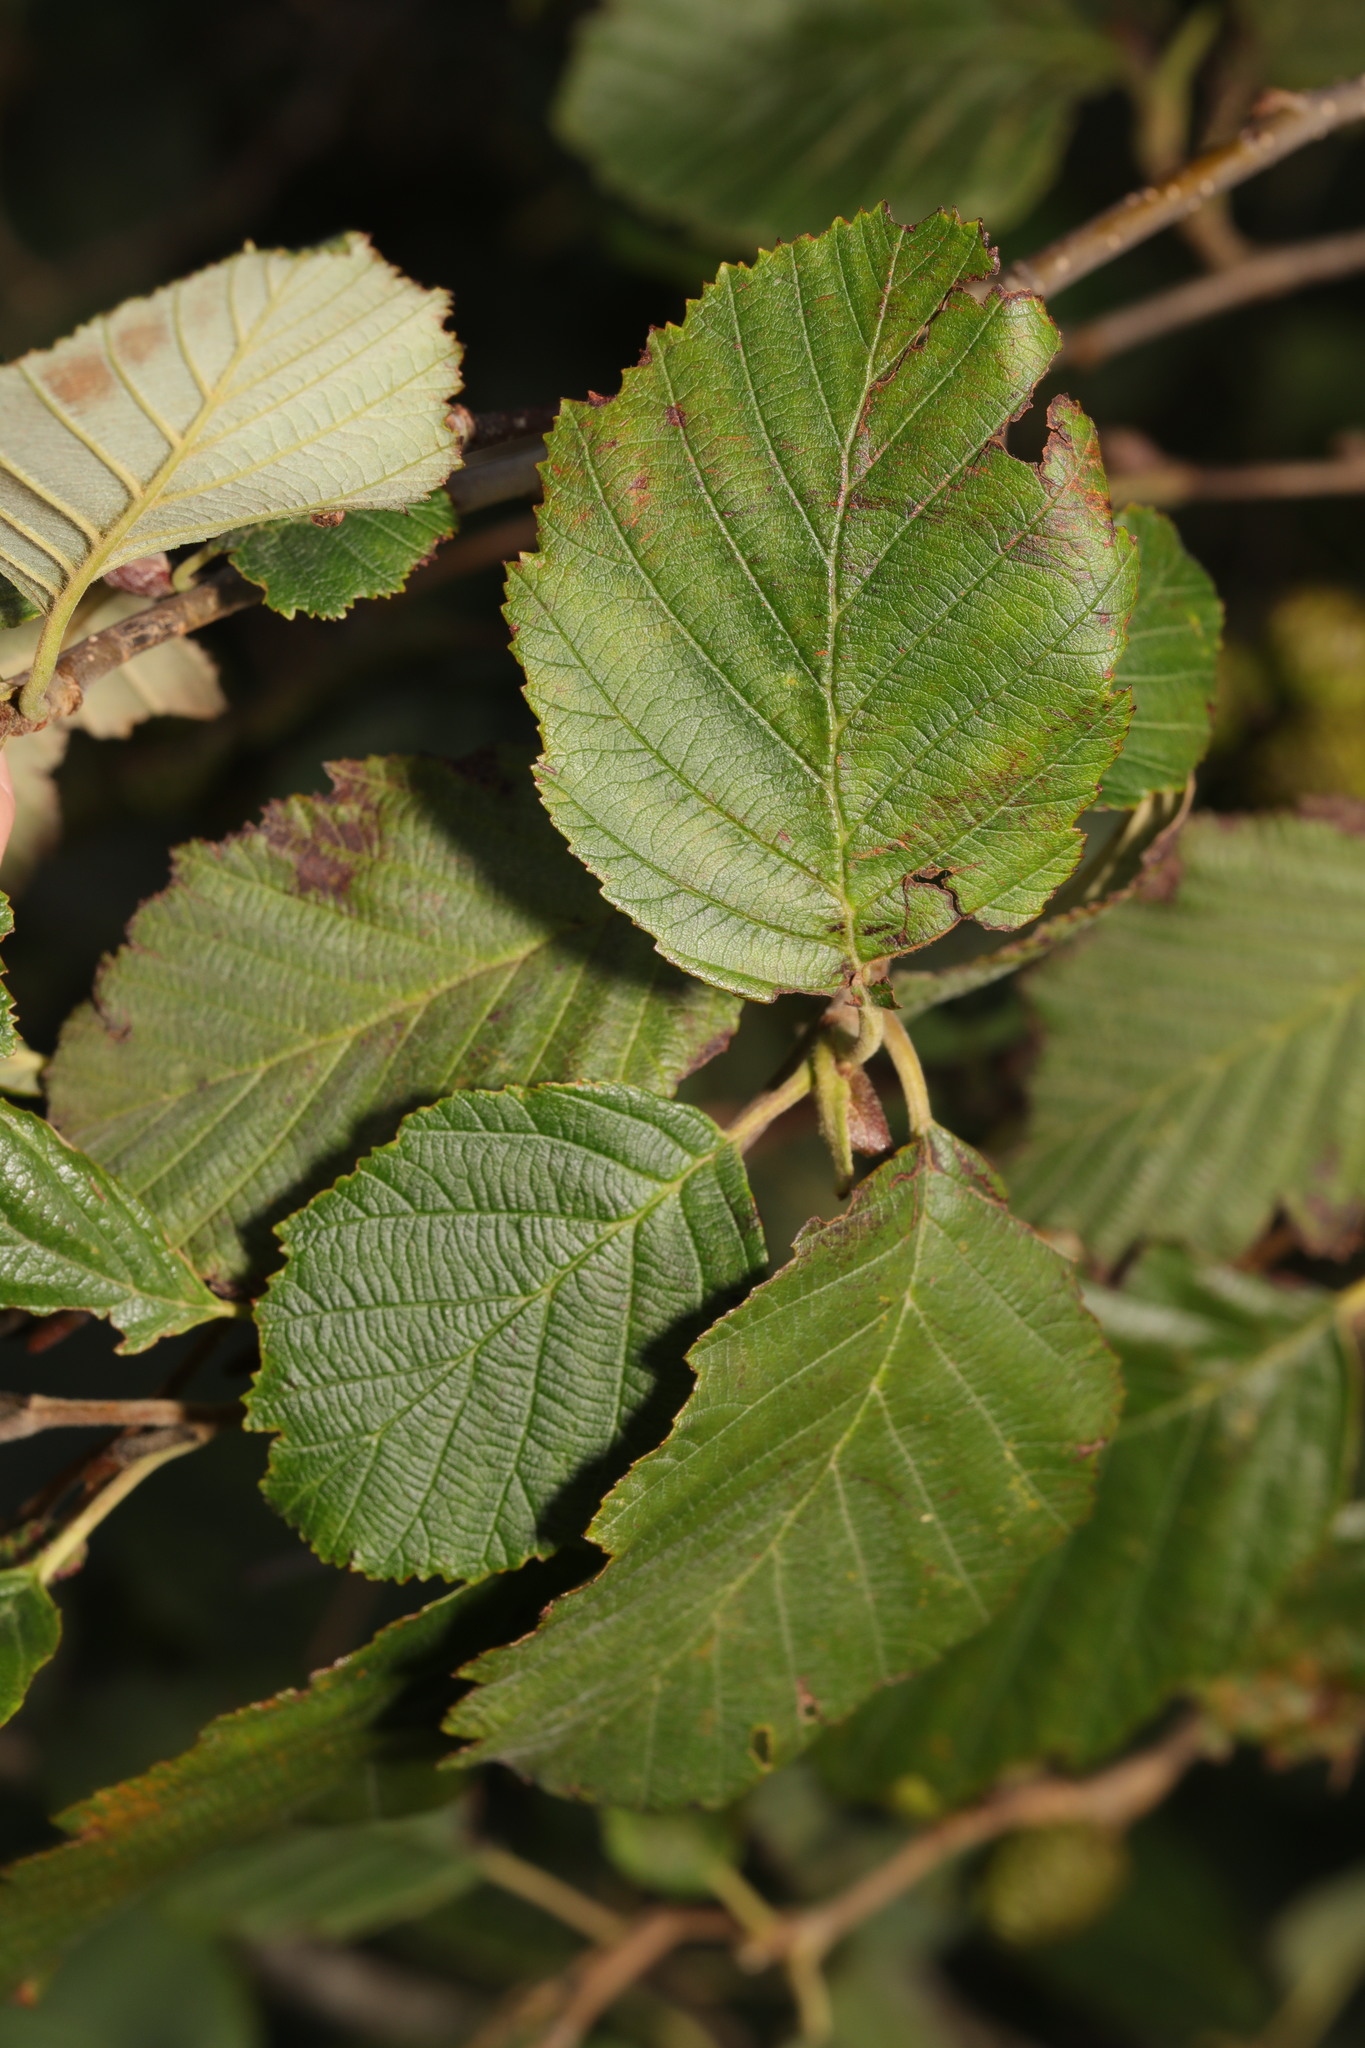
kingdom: Plantae
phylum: Tracheophyta
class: Magnoliopsida
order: Fagales
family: Betulaceae
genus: Alnus
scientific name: Alnus incana
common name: Grey alder
